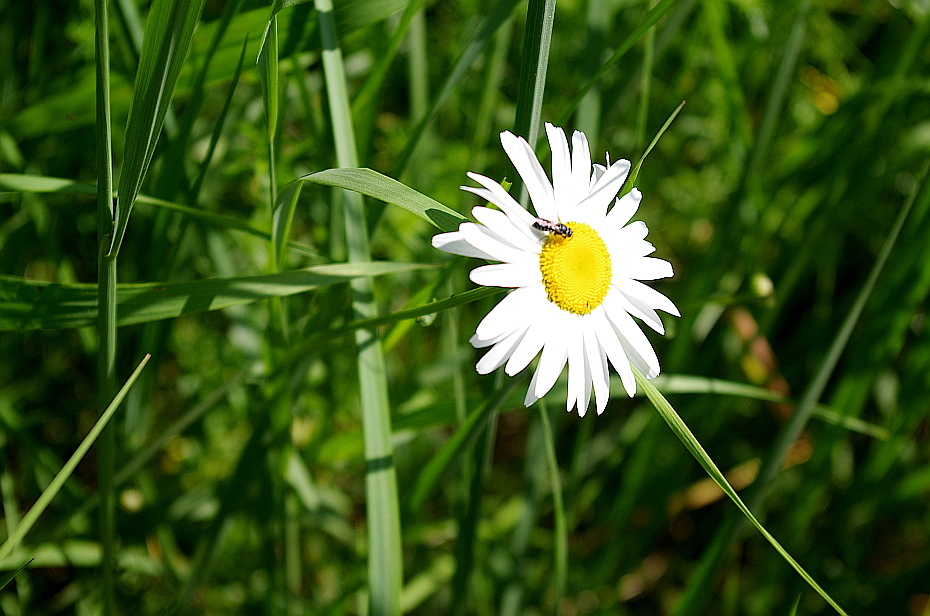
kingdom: Plantae
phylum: Tracheophyta
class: Magnoliopsida
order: Asterales
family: Asteraceae
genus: Leucanthemum
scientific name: Leucanthemum vulgare
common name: Oxeye daisy
